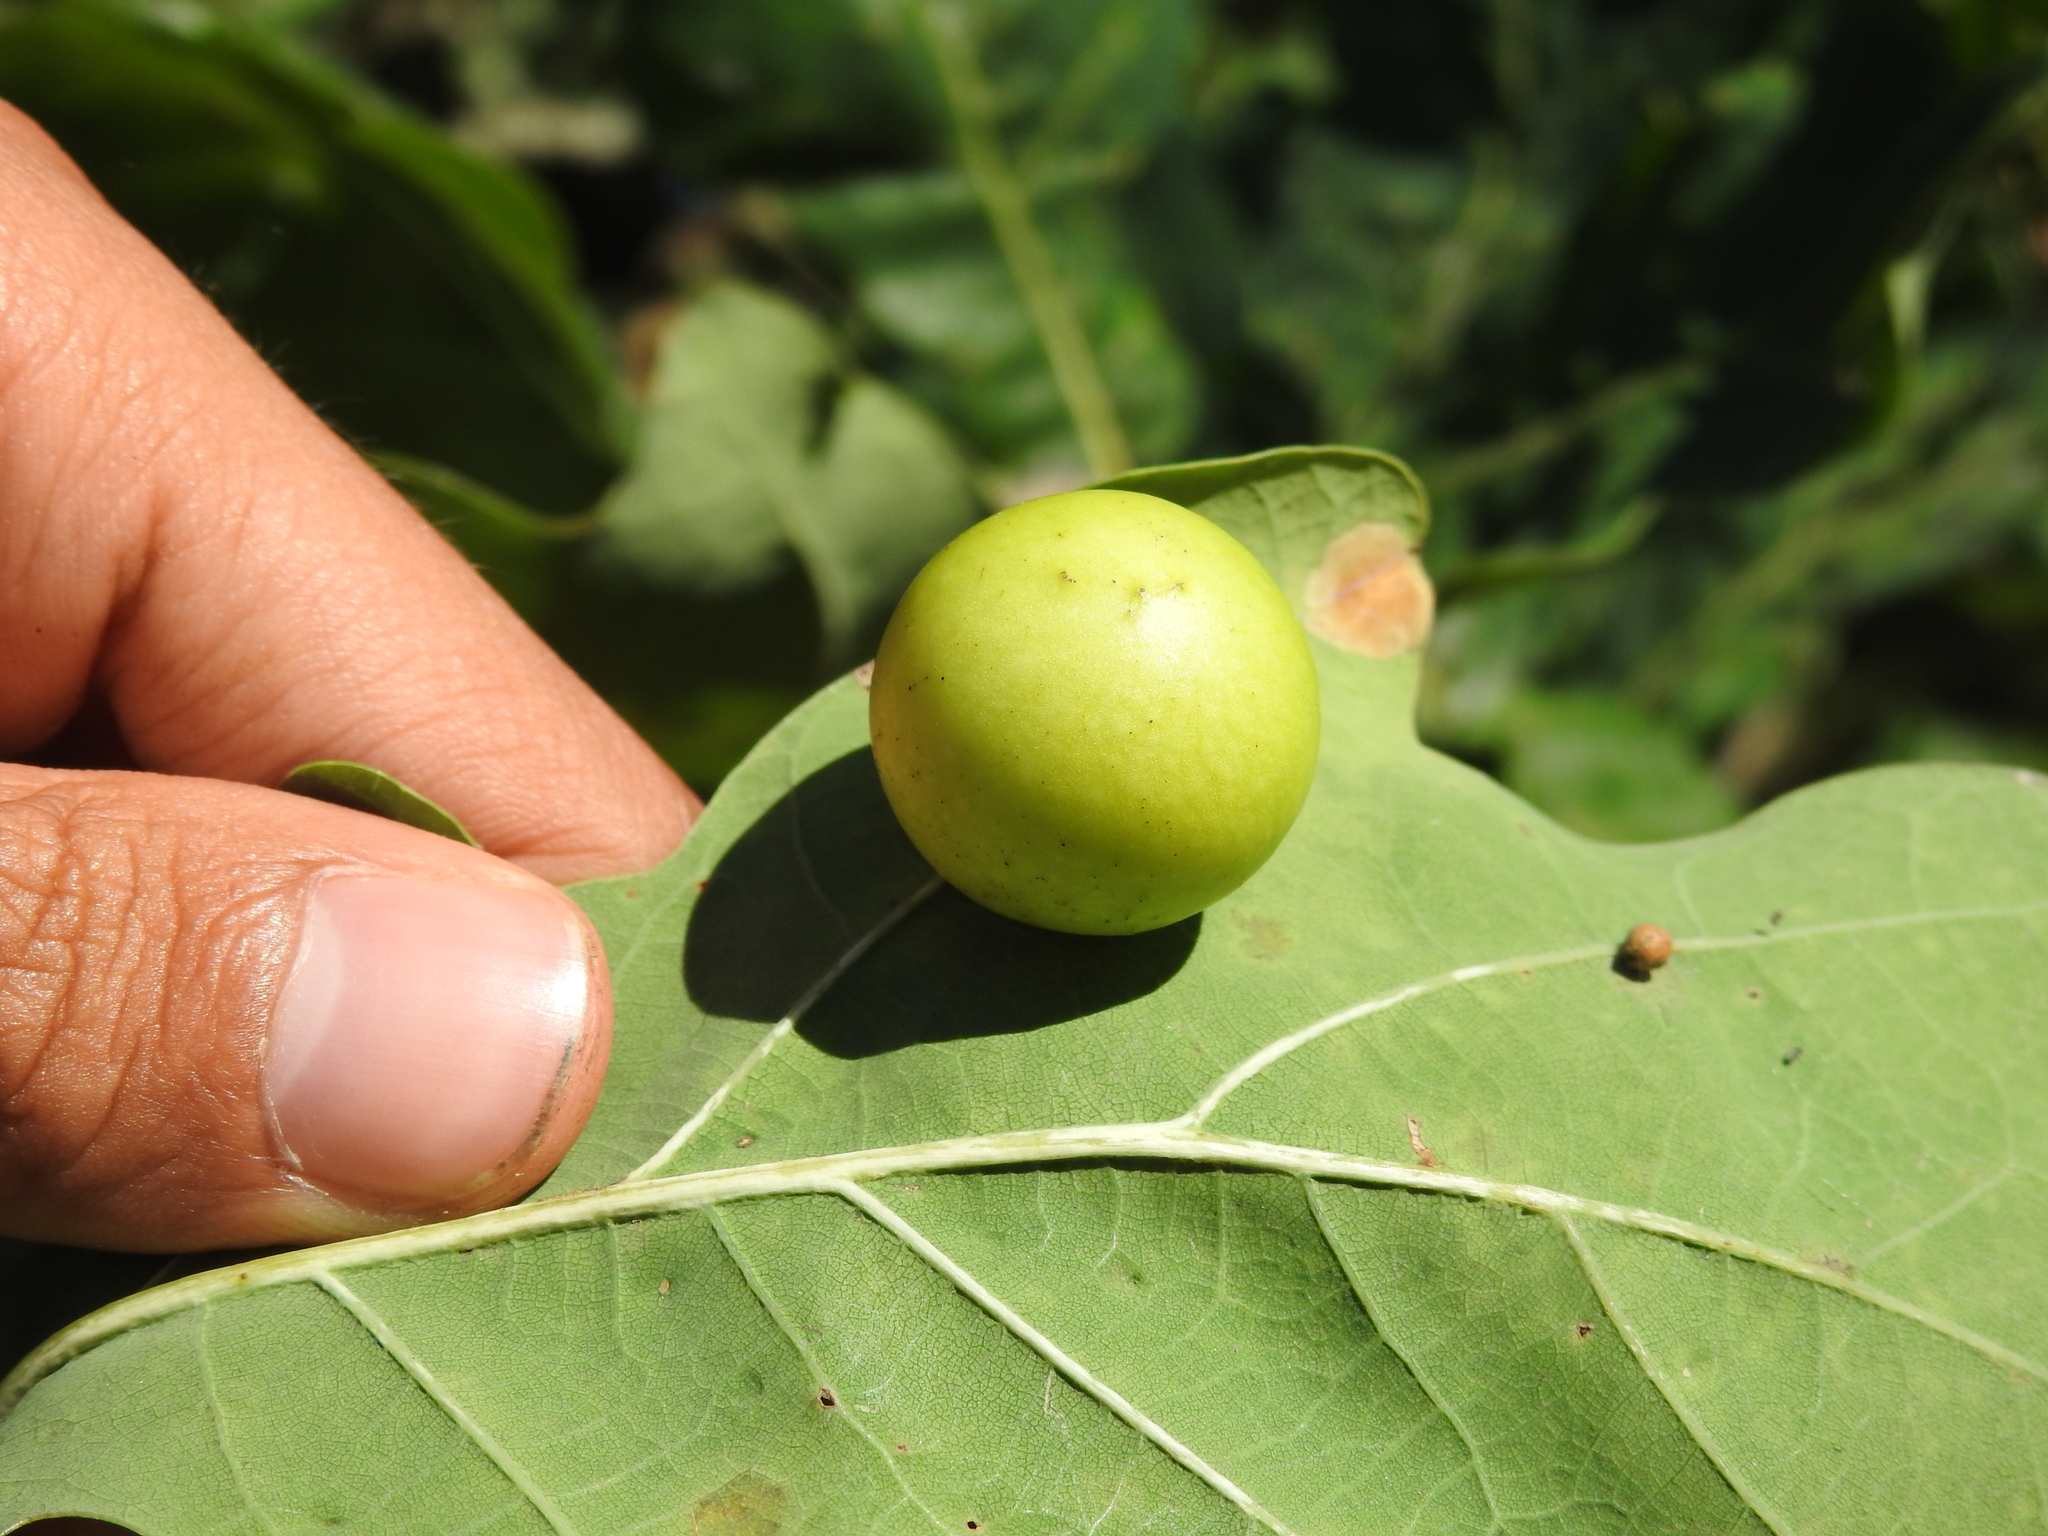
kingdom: Animalia
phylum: Arthropoda
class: Insecta
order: Hymenoptera
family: Cynipidae
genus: Cynips
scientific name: Cynips quercusfolii
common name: Cherry gall
